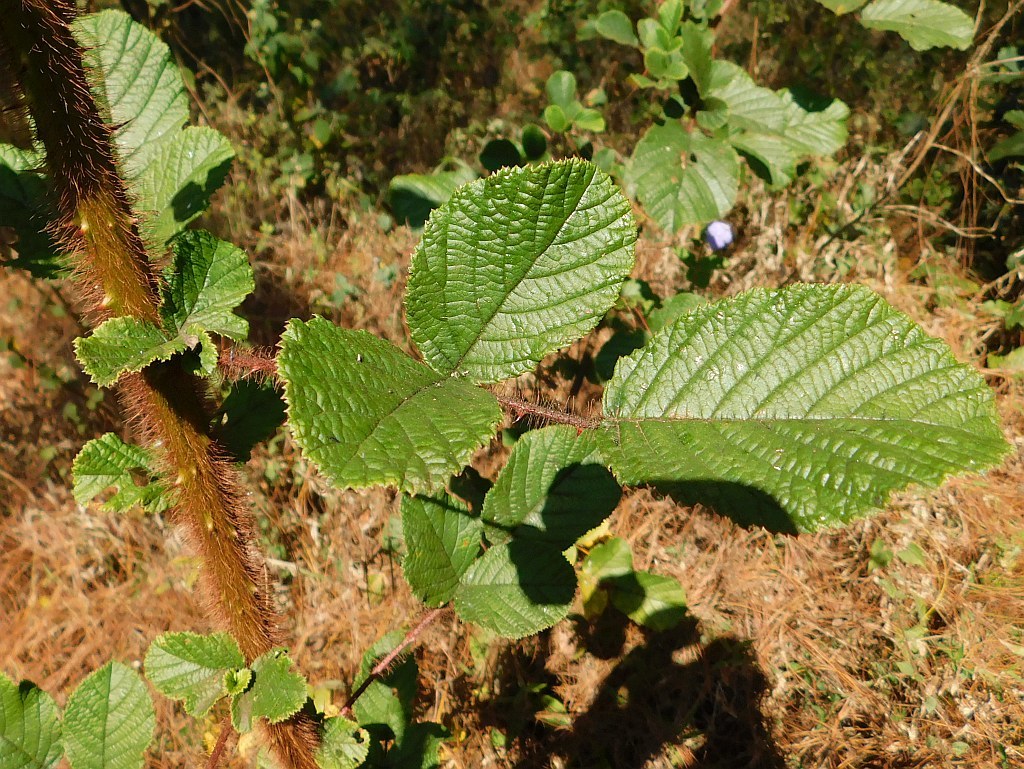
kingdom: Plantae
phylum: Tracheophyta
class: Magnoliopsida
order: Rosales
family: Rosaceae
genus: Rubus
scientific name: Rubus ellipticus
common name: Cheeseberry
